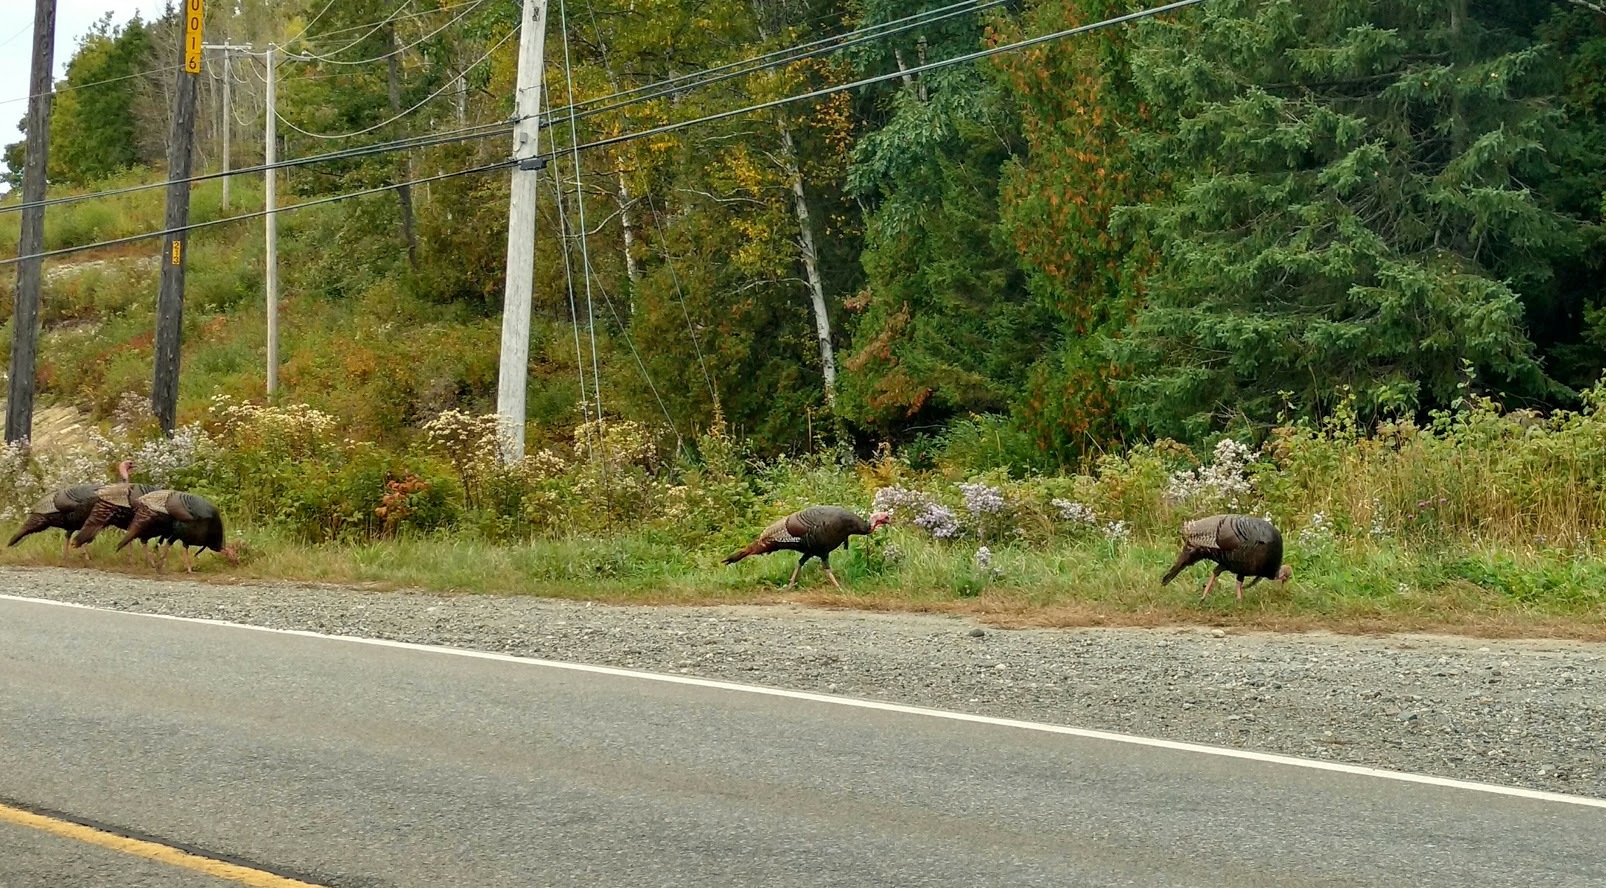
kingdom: Animalia
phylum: Chordata
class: Aves
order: Galliformes
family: Phasianidae
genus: Meleagris
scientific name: Meleagris gallopavo
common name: Wild turkey
